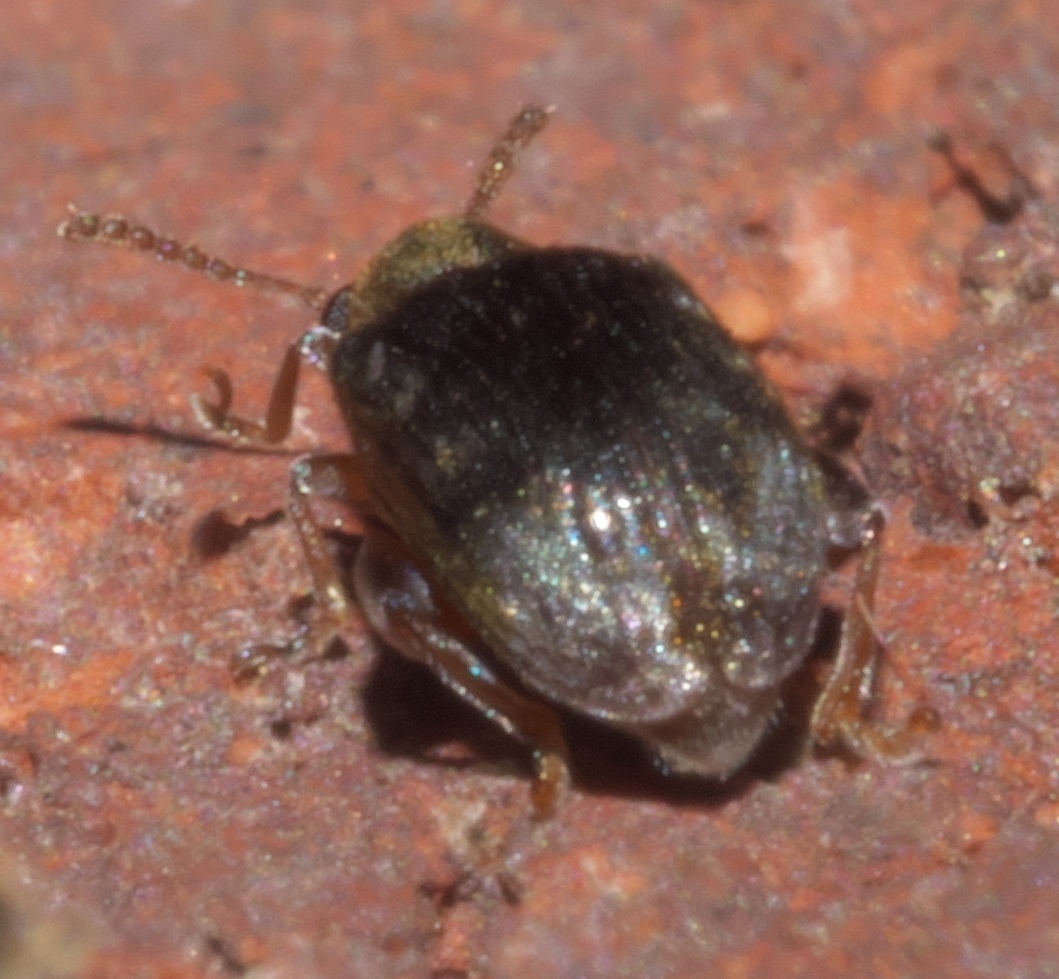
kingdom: Animalia
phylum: Arthropoda
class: Insecta
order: Coleoptera
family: Chrysomelidae
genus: Pseudolampis
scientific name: Pseudolampis guttata
